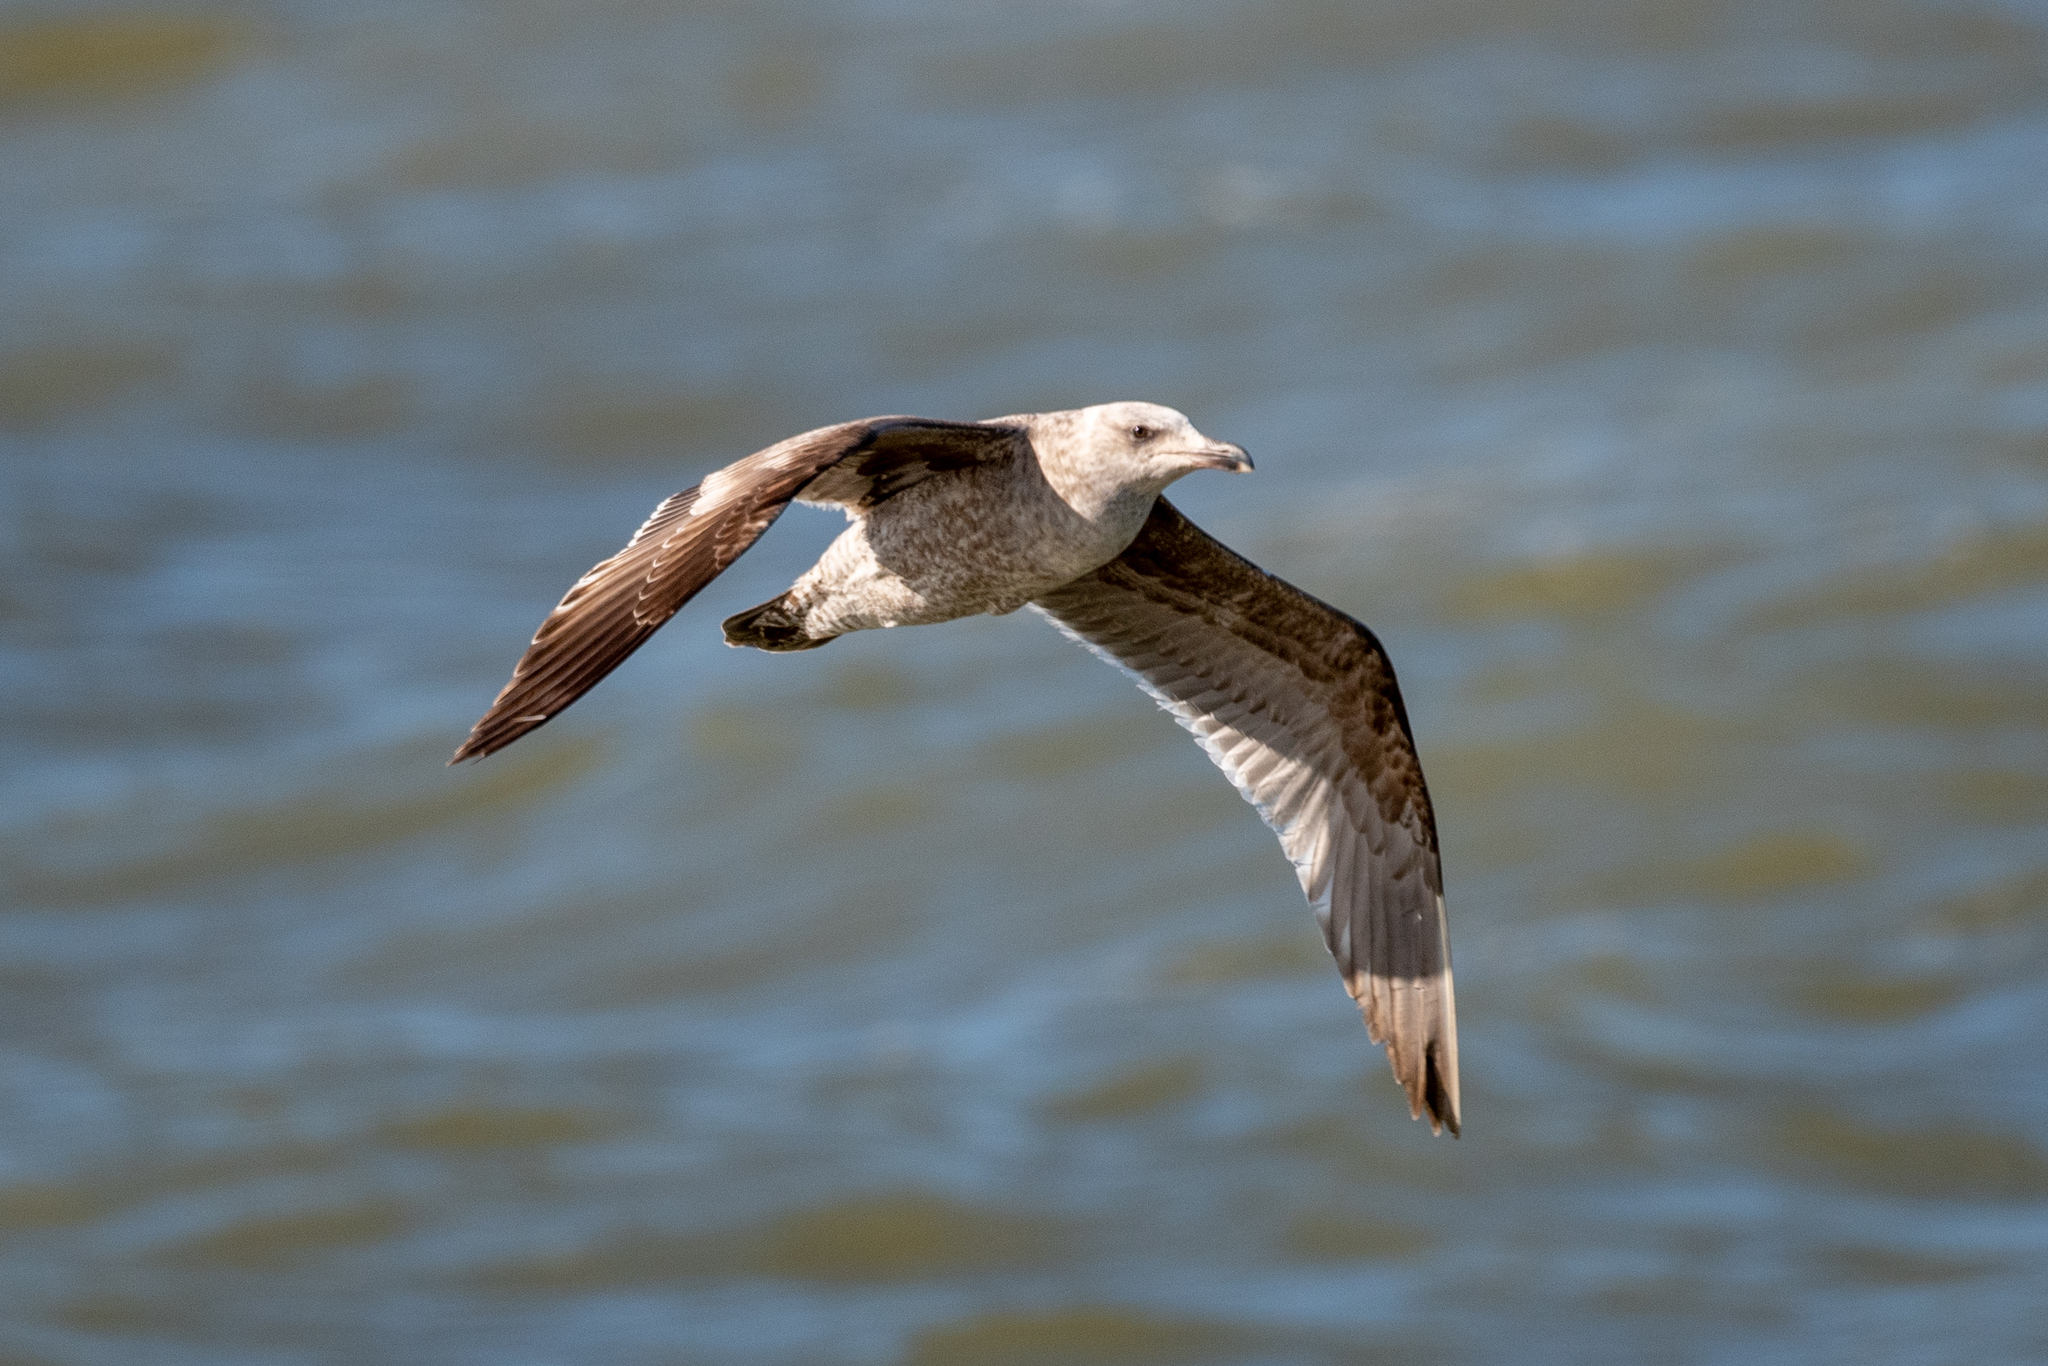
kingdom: Animalia
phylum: Chordata
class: Aves
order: Charadriiformes
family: Laridae
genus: Larus
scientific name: Larus occidentalis
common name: Western gull
